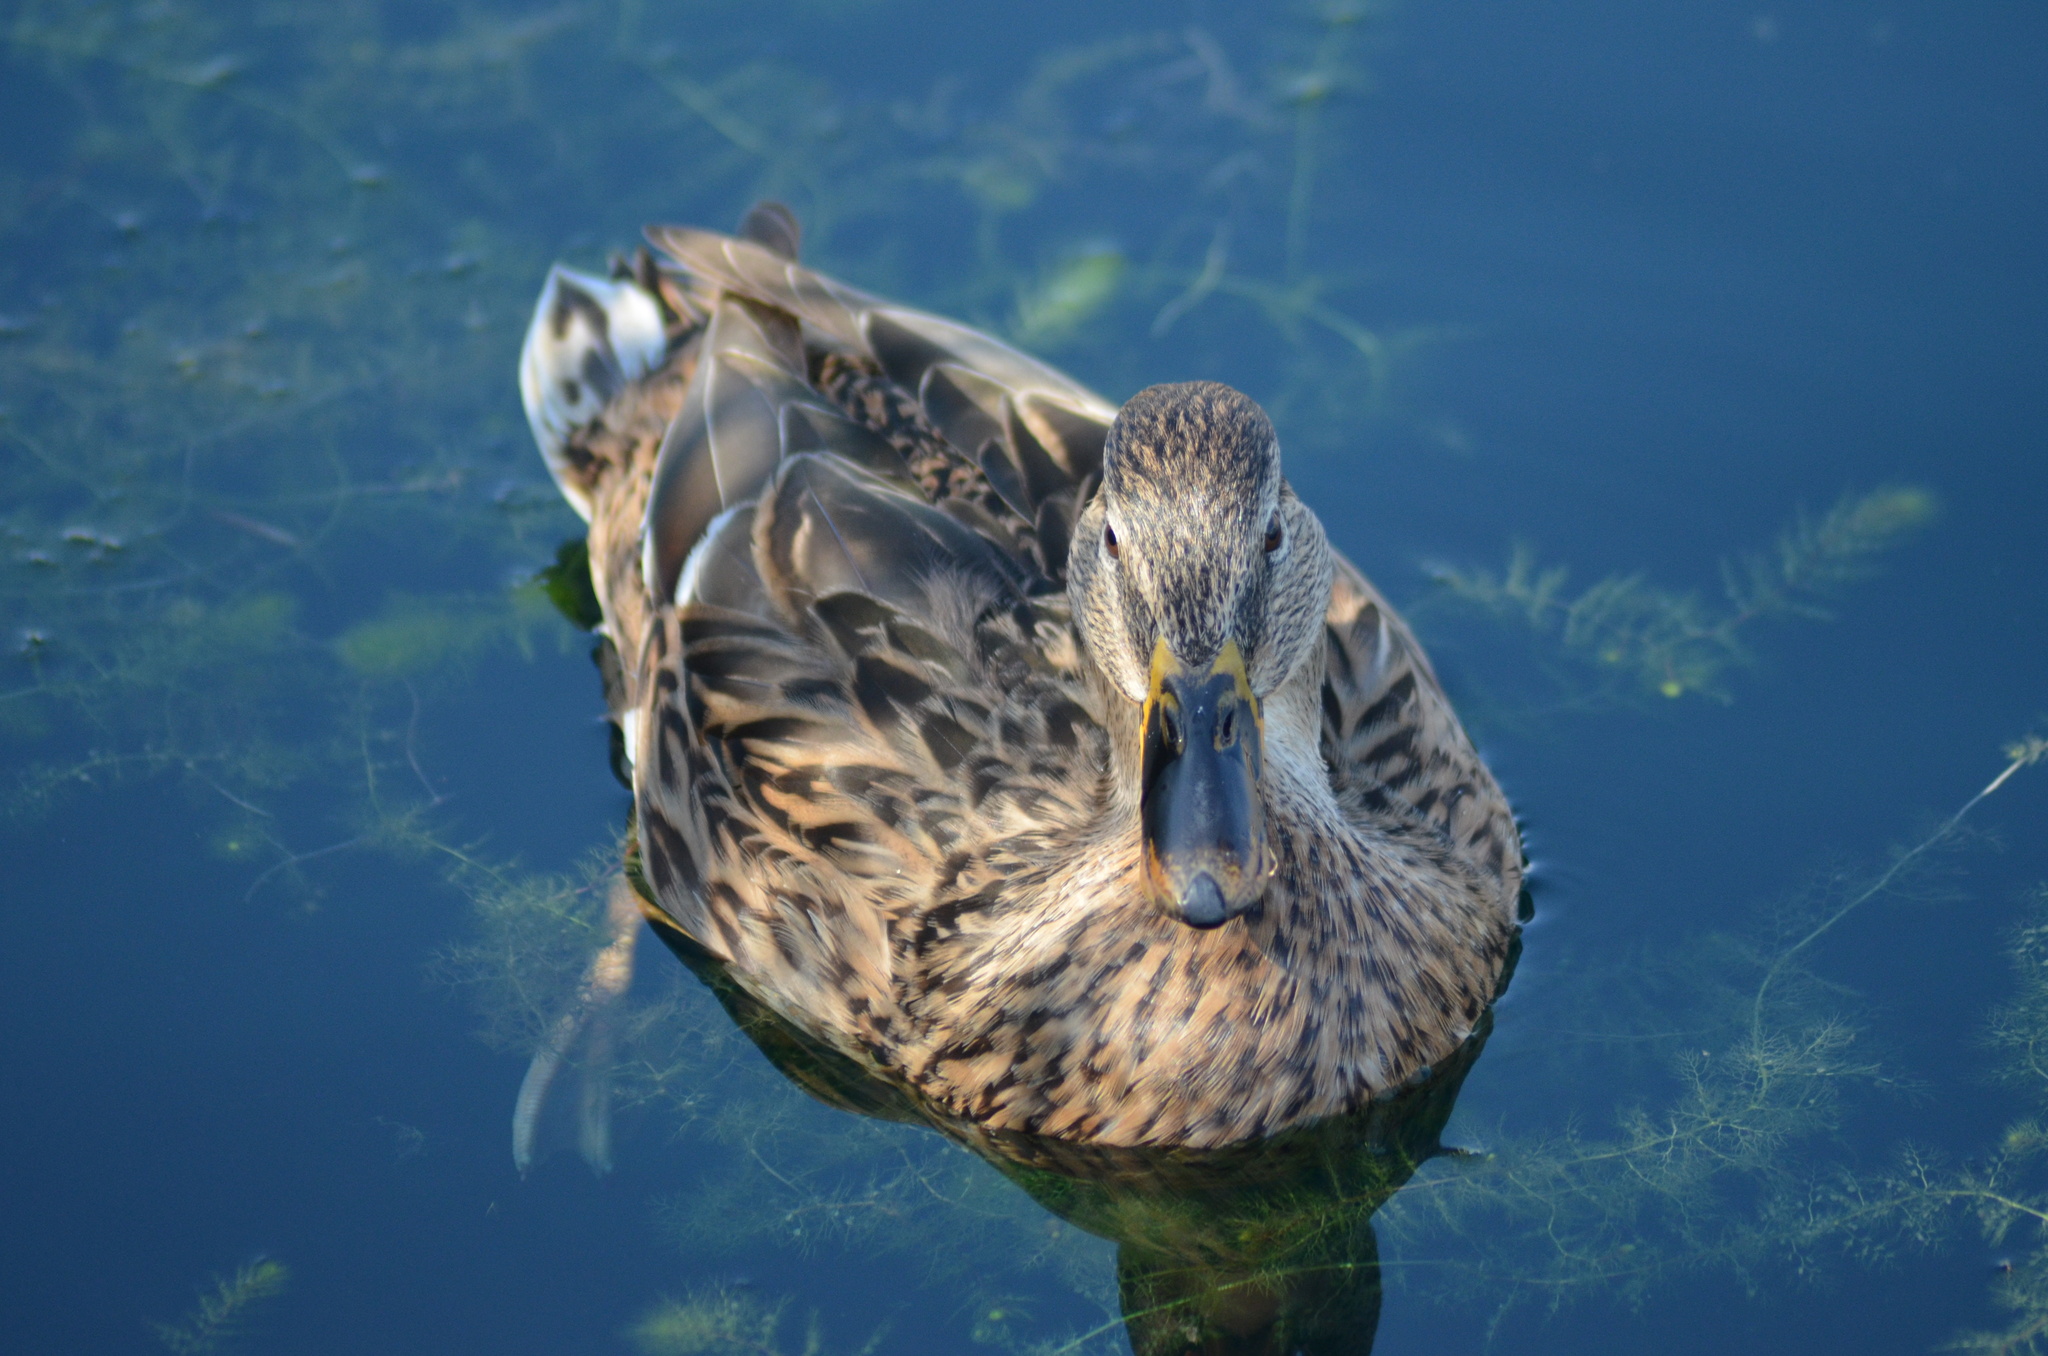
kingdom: Animalia
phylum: Chordata
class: Aves
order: Anseriformes
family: Anatidae
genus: Anas
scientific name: Anas platyrhynchos
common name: Mallard
